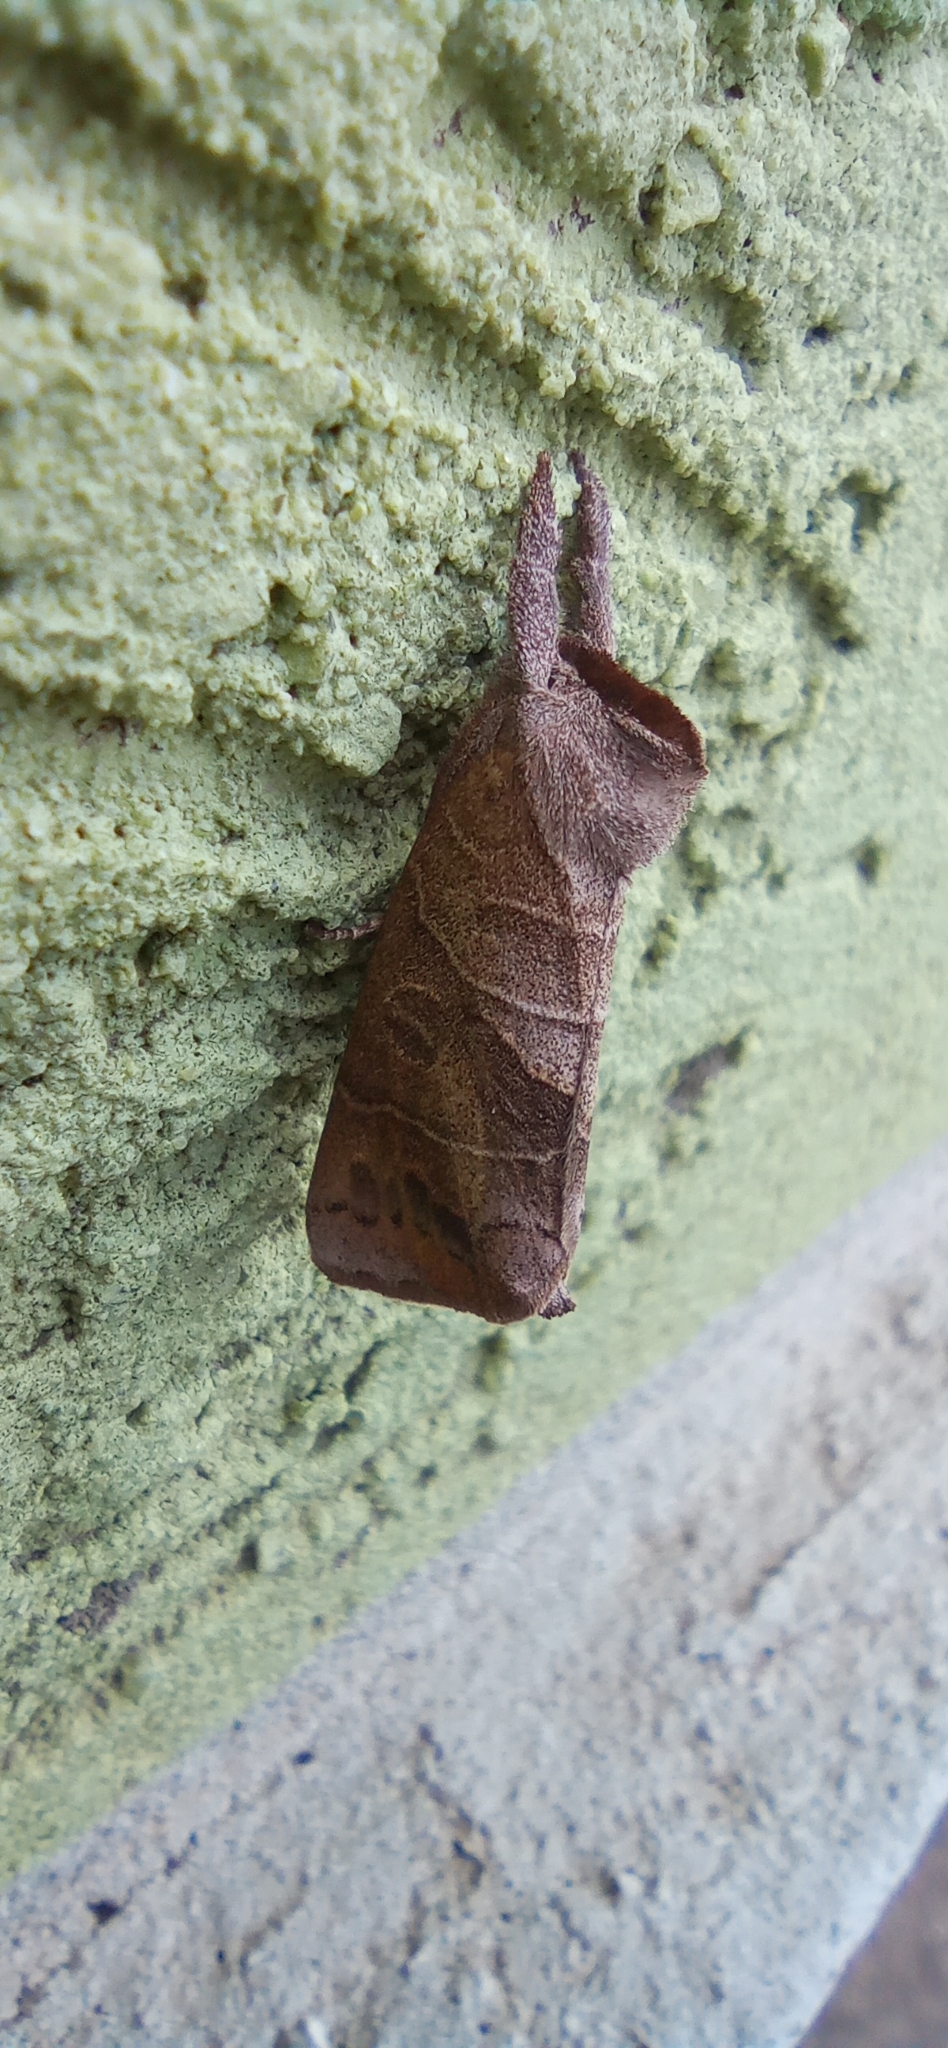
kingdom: Animalia
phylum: Arthropoda
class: Insecta
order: Lepidoptera
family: Notodontidae
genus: Clostera
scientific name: Clostera anastomosis
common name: Poplar tip moth
